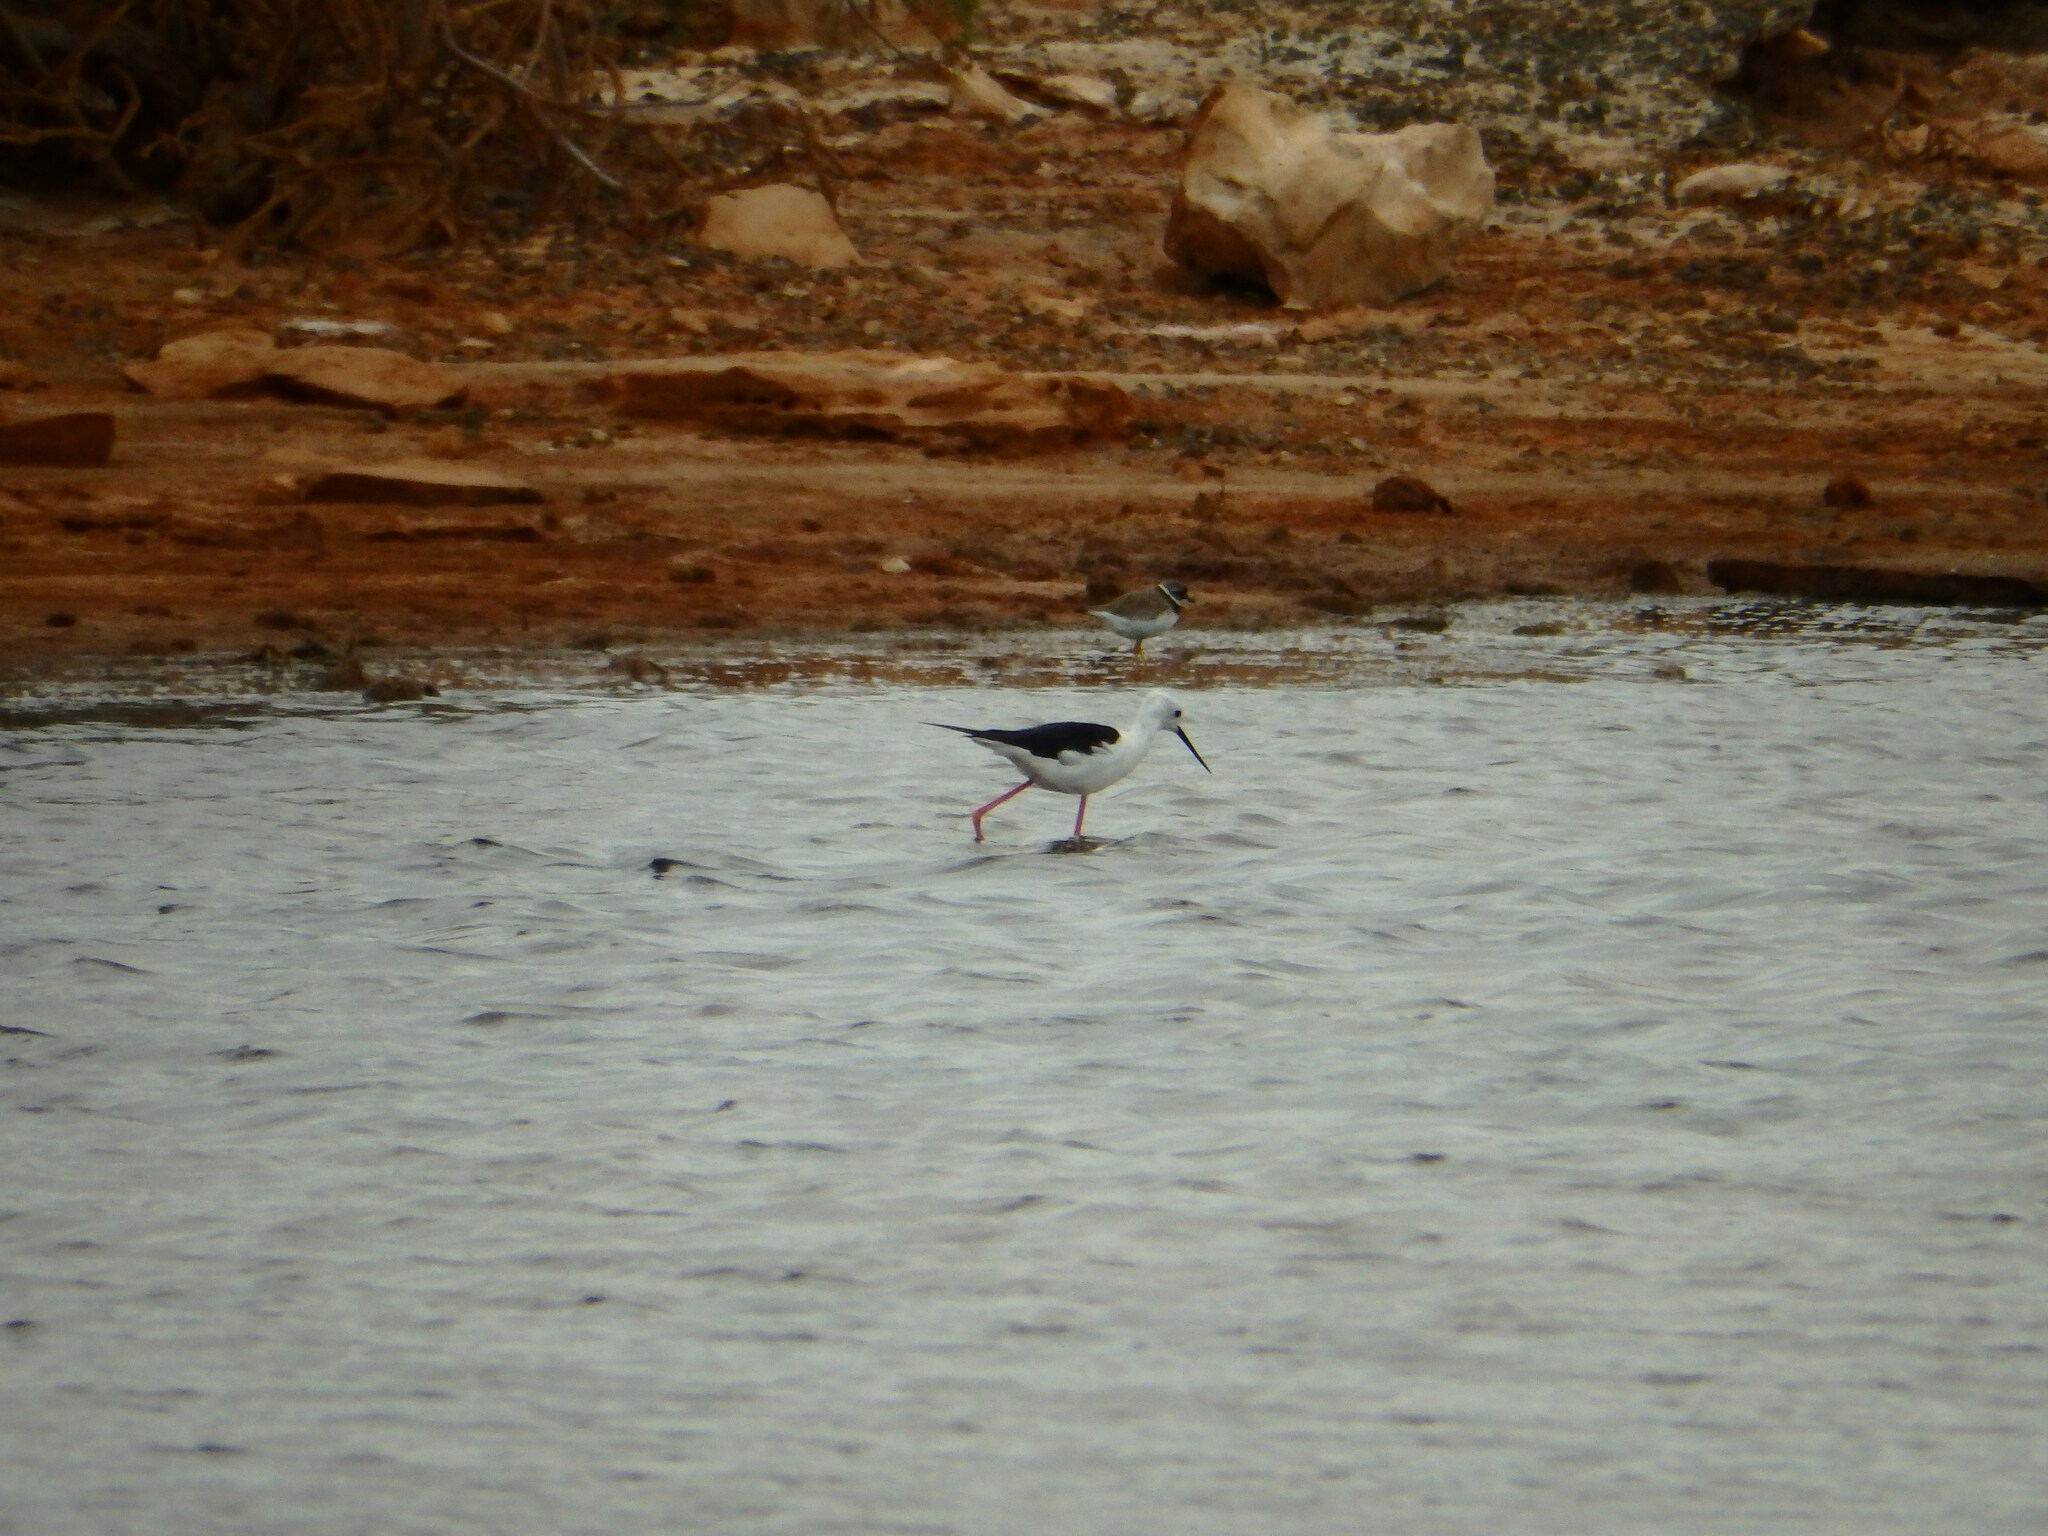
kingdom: Animalia
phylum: Chordata
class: Aves
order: Charadriiformes
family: Charadriidae
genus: Charadrius
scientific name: Charadrius hiaticula
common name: Common ringed plover
